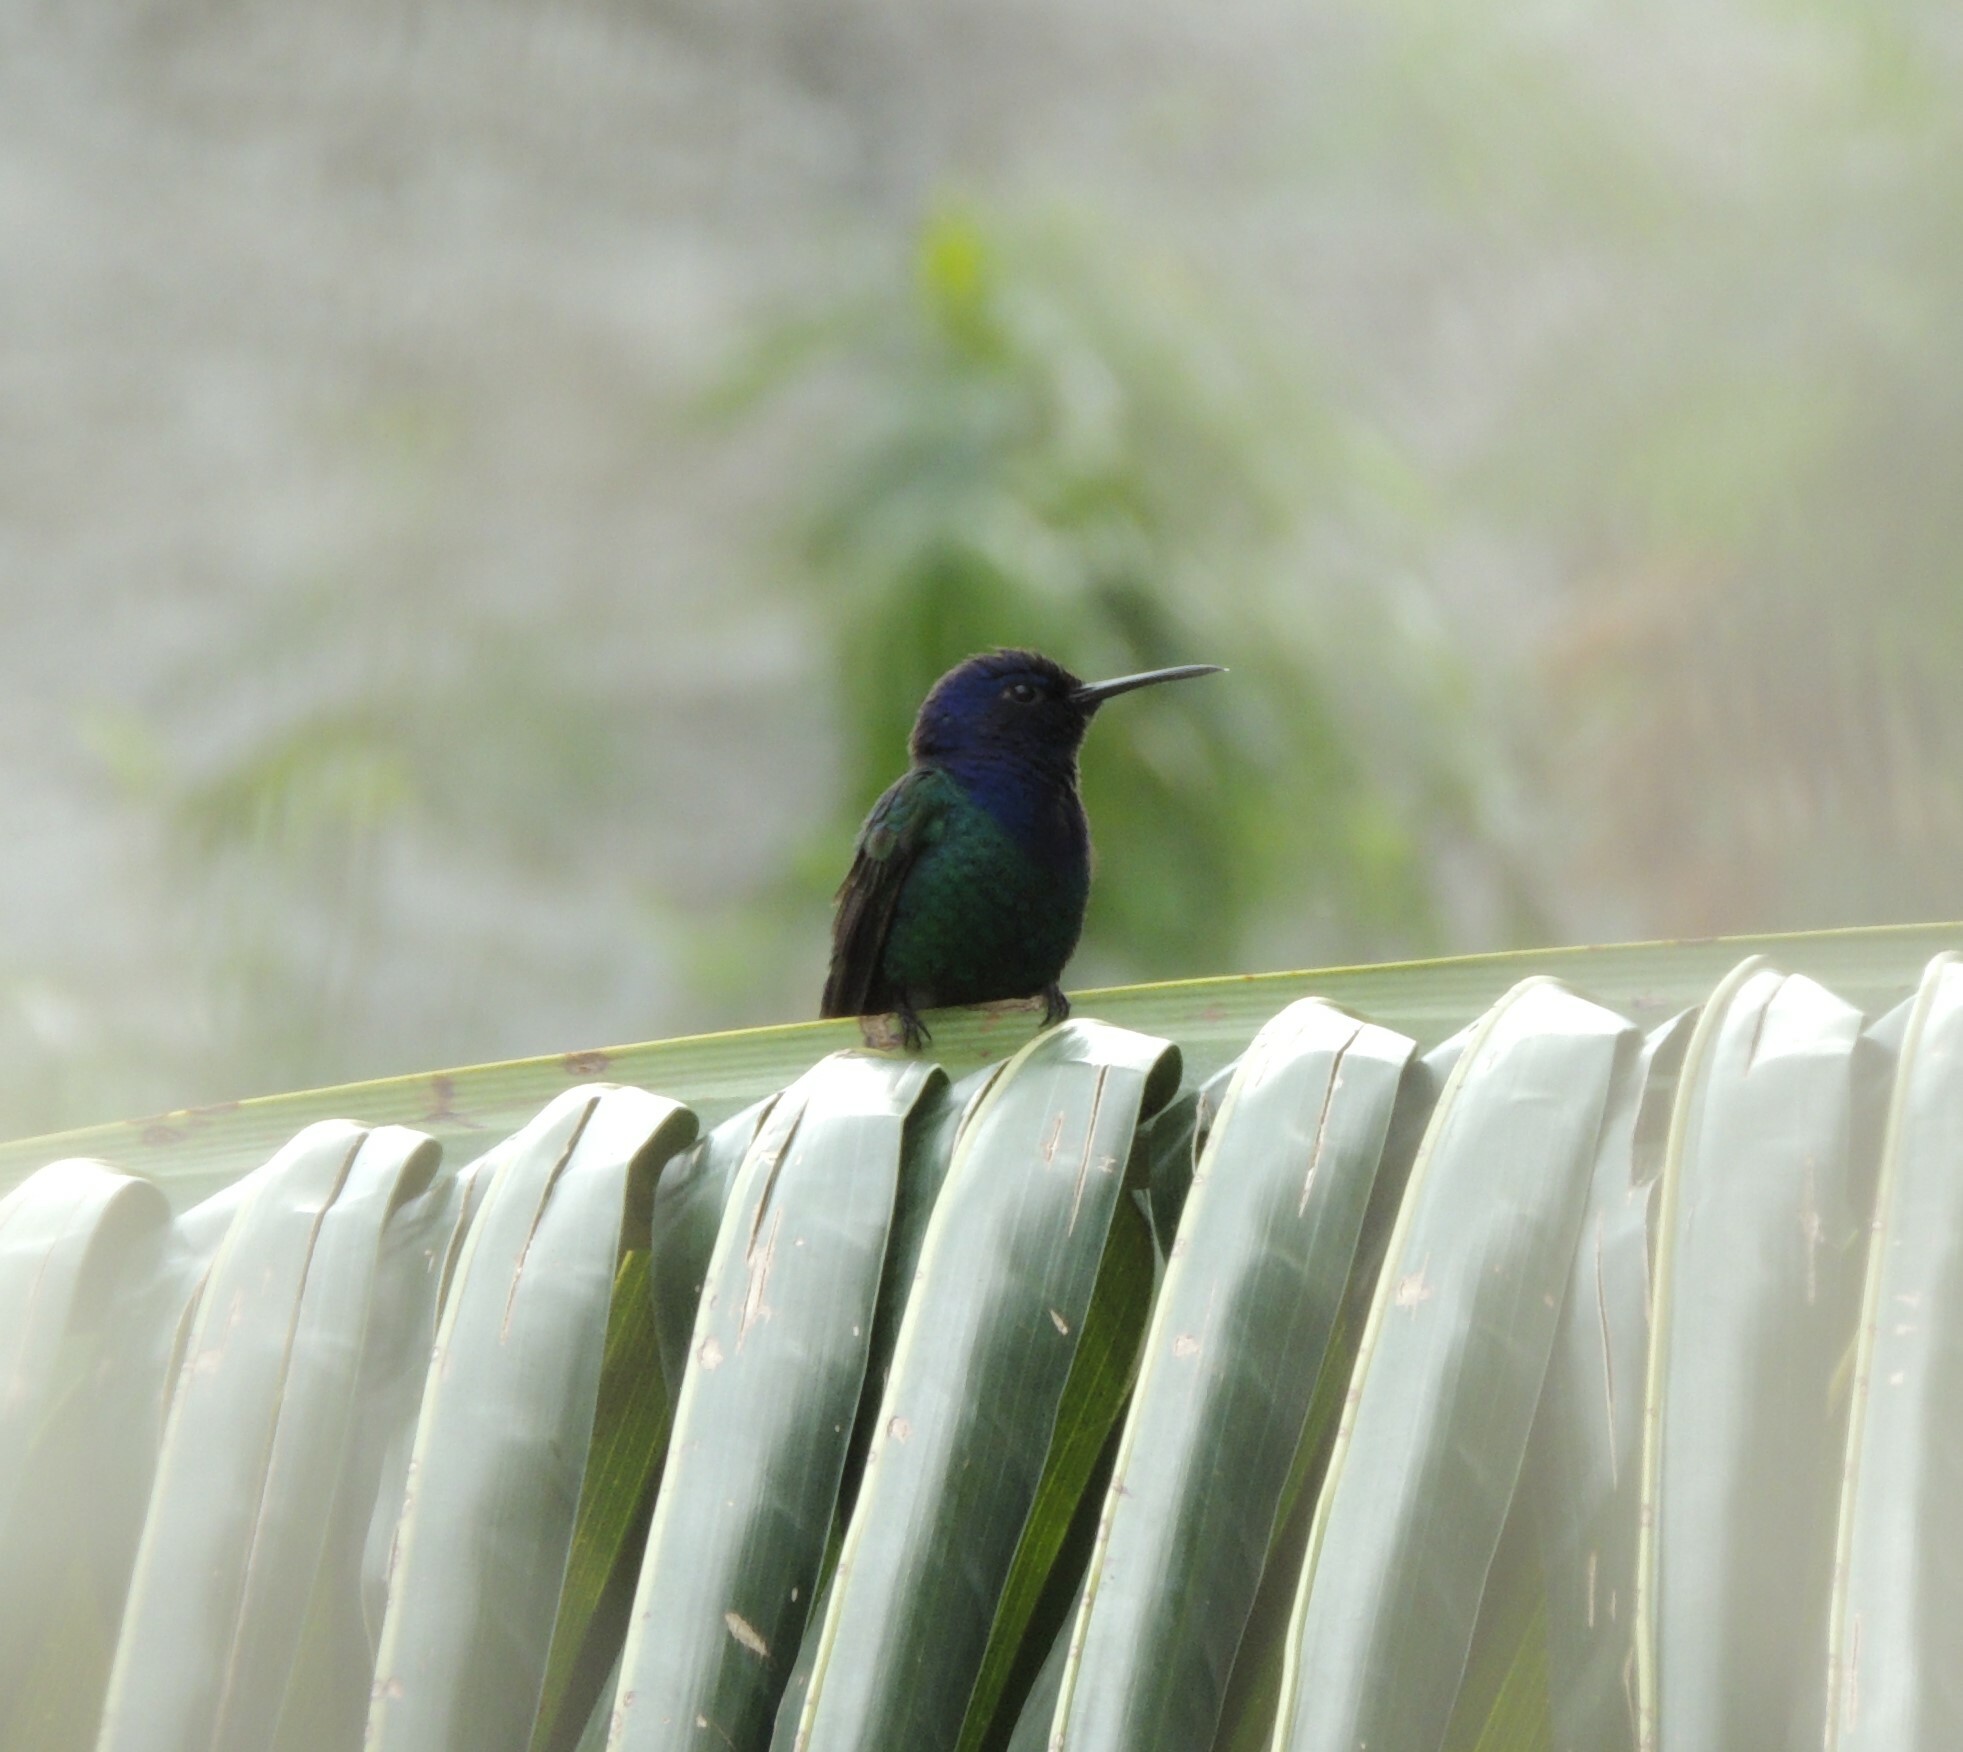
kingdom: Animalia
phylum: Chordata
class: Aves
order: Apodiformes
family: Trochilidae
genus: Eupetomena
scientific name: Eupetomena macroura
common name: Swallow-tailed hummingbird
